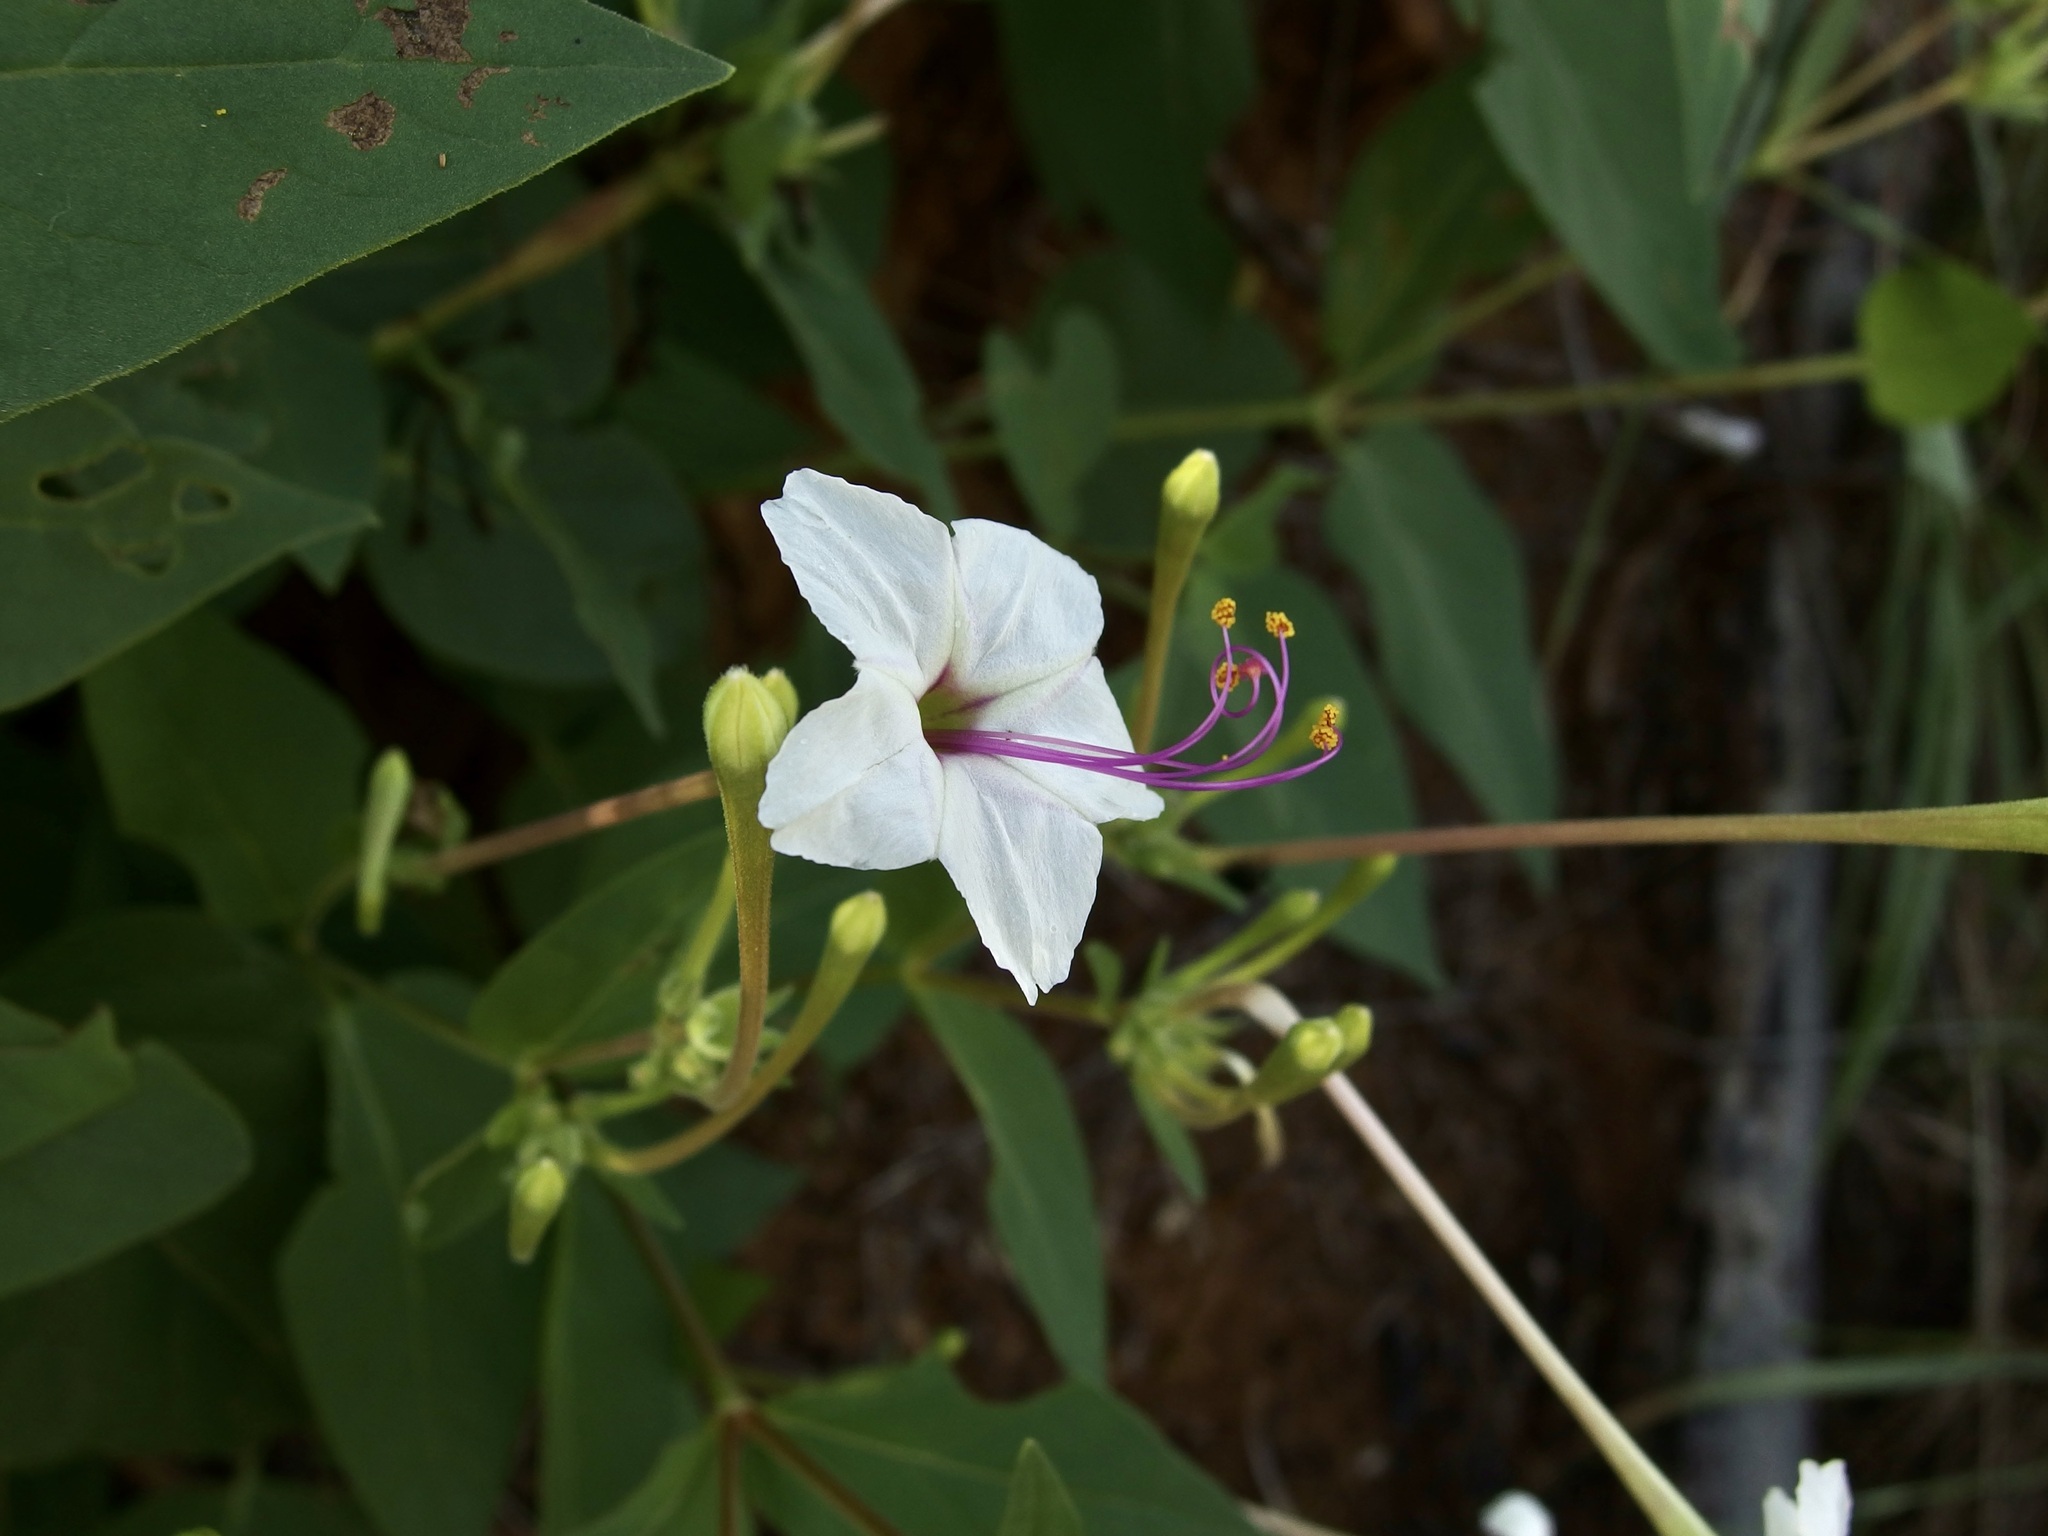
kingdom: Plantae
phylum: Tracheophyta
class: Magnoliopsida
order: Caryophyllales
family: Nyctaginaceae
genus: Mirabilis
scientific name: Mirabilis longiflora
